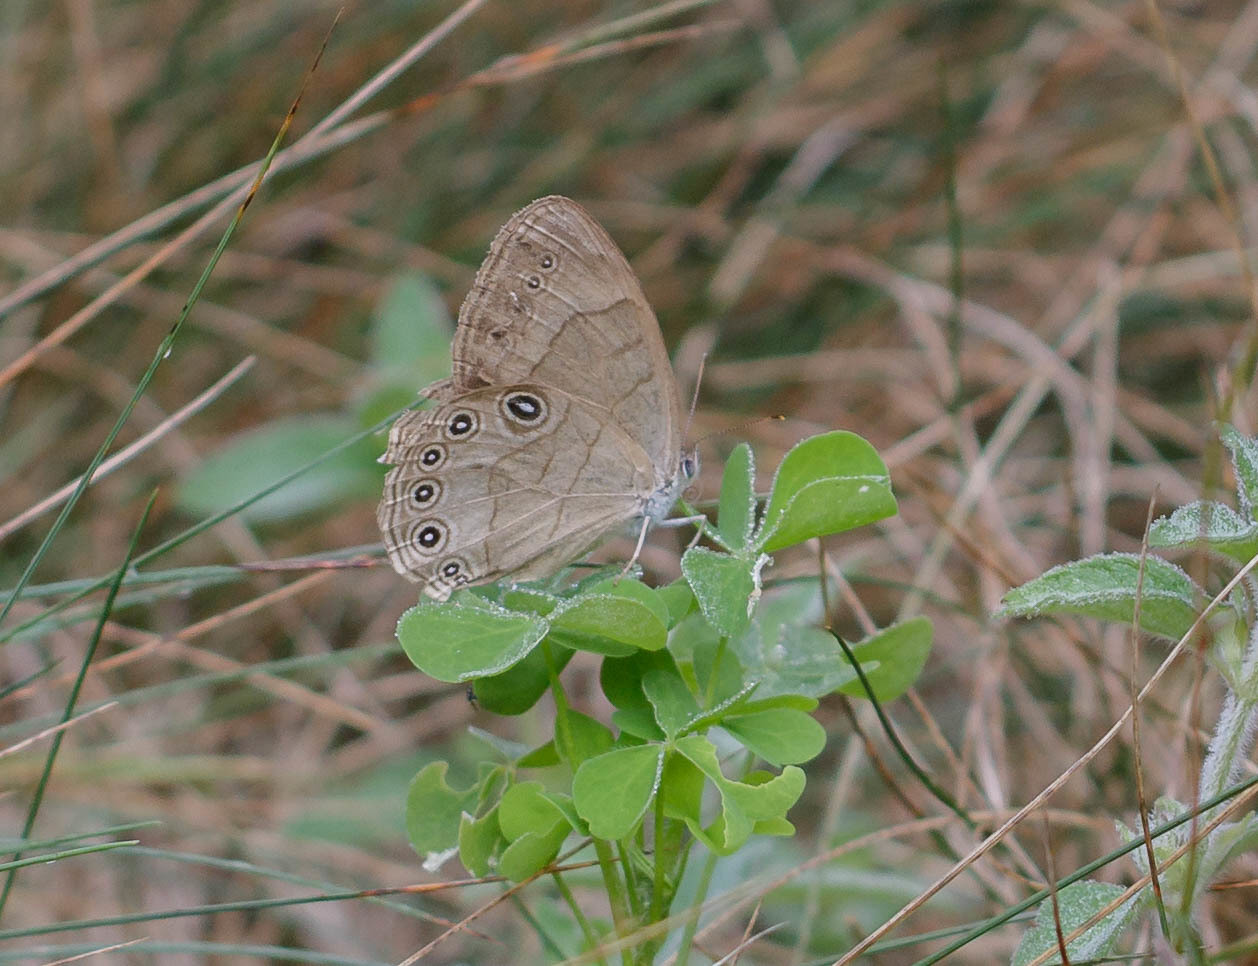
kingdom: Animalia
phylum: Arthropoda
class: Insecta
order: Lepidoptera
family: Nymphalidae
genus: Lethe
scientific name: Lethe eurydice
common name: Eyed brown
